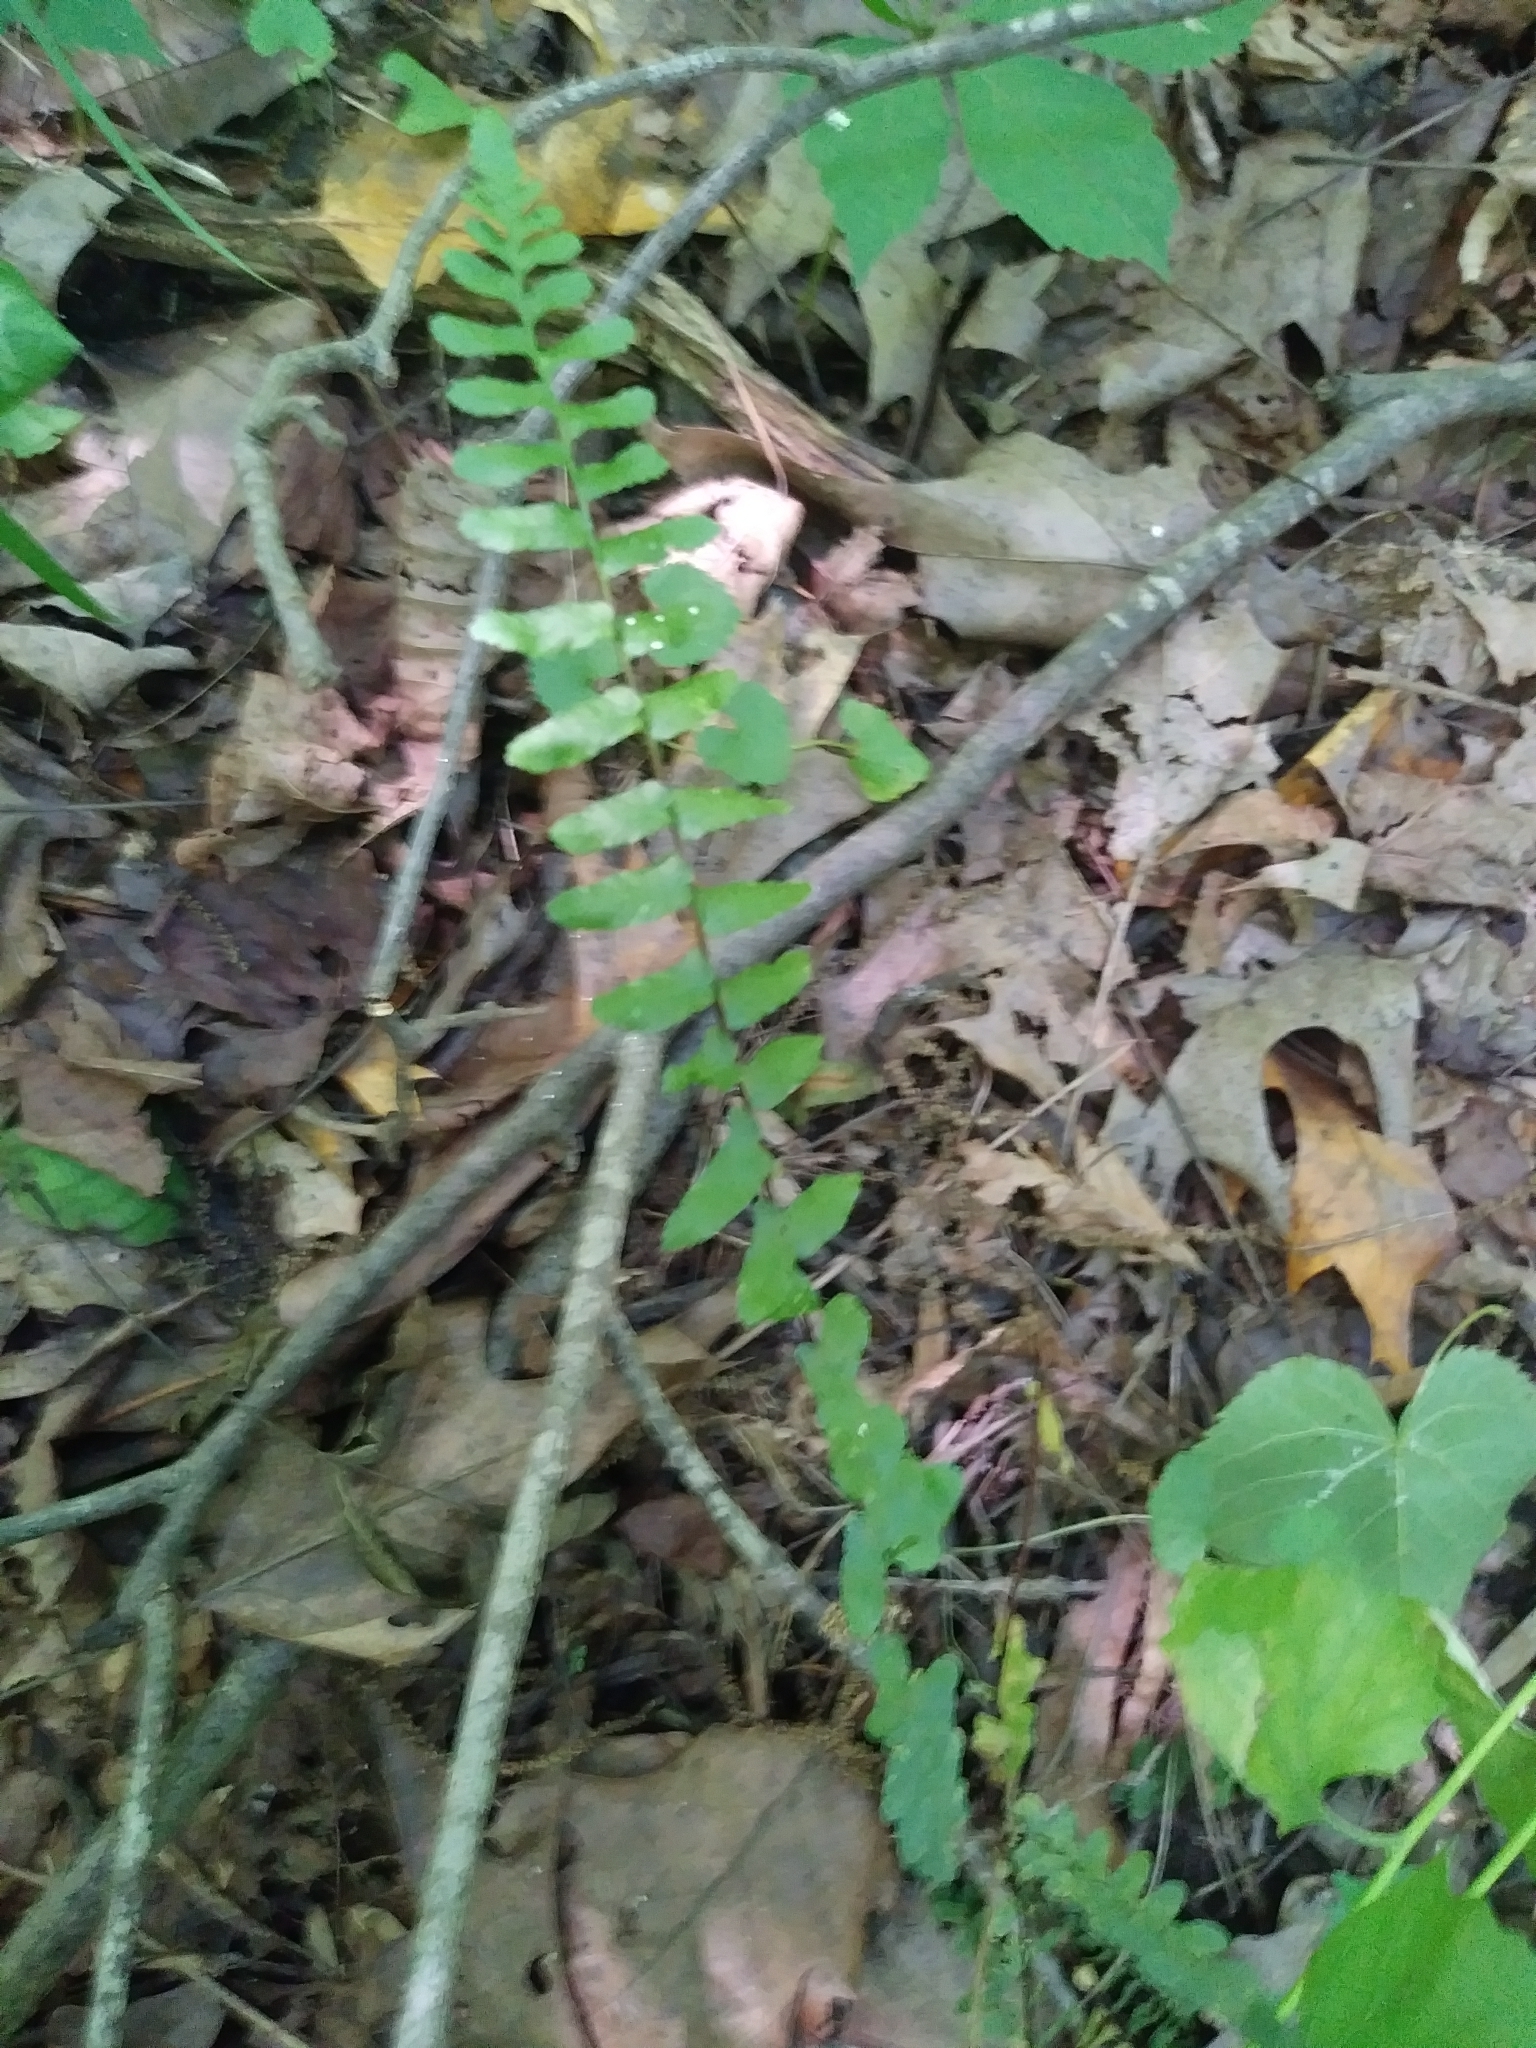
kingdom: Plantae
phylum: Tracheophyta
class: Polypodiopsida
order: Polypodiales
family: Aspleniaceae
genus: Asplenium
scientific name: Asplenium platyneuron
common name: Ebony spleenwort
